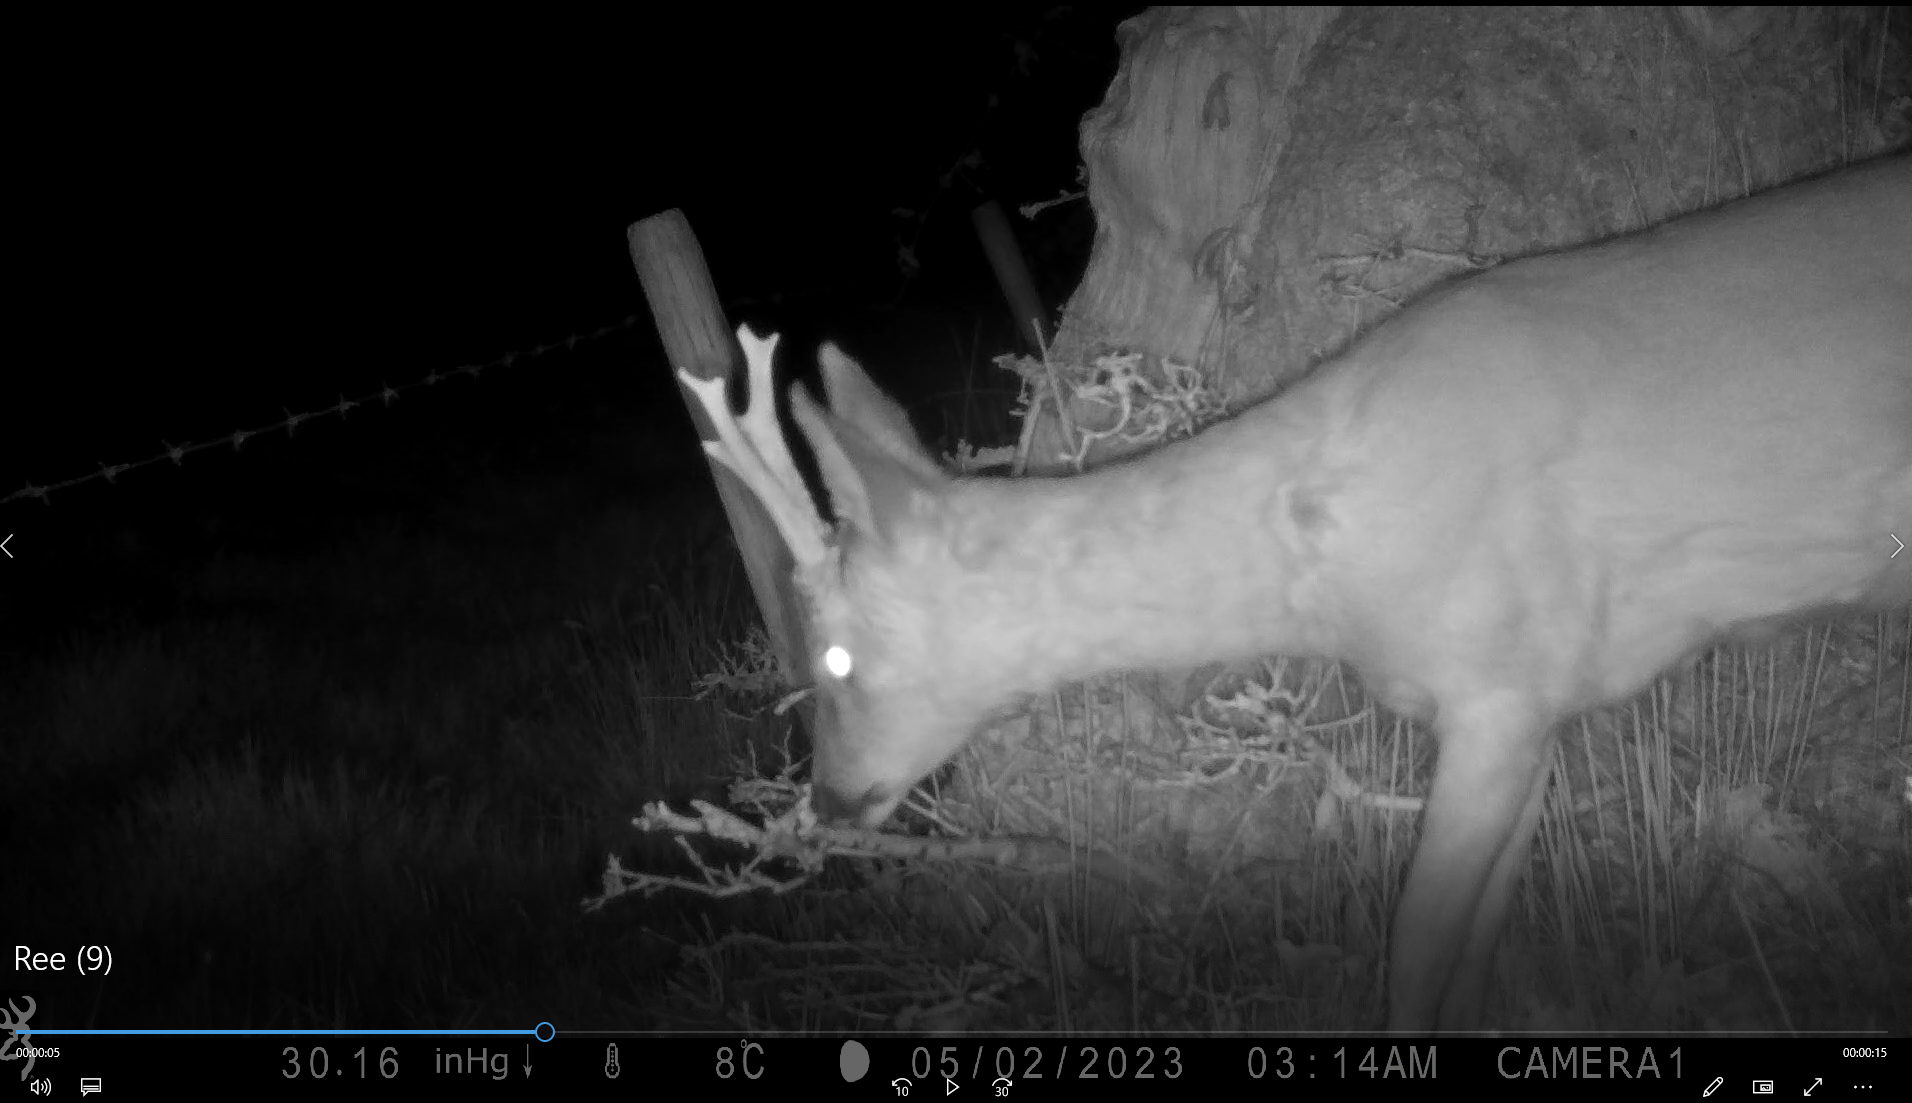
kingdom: Animalia
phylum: Chordata
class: Mammalia
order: Artiodactyla
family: Cervidae
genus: Capreolus
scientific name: Capreolus capreolus
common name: Western roe deer
